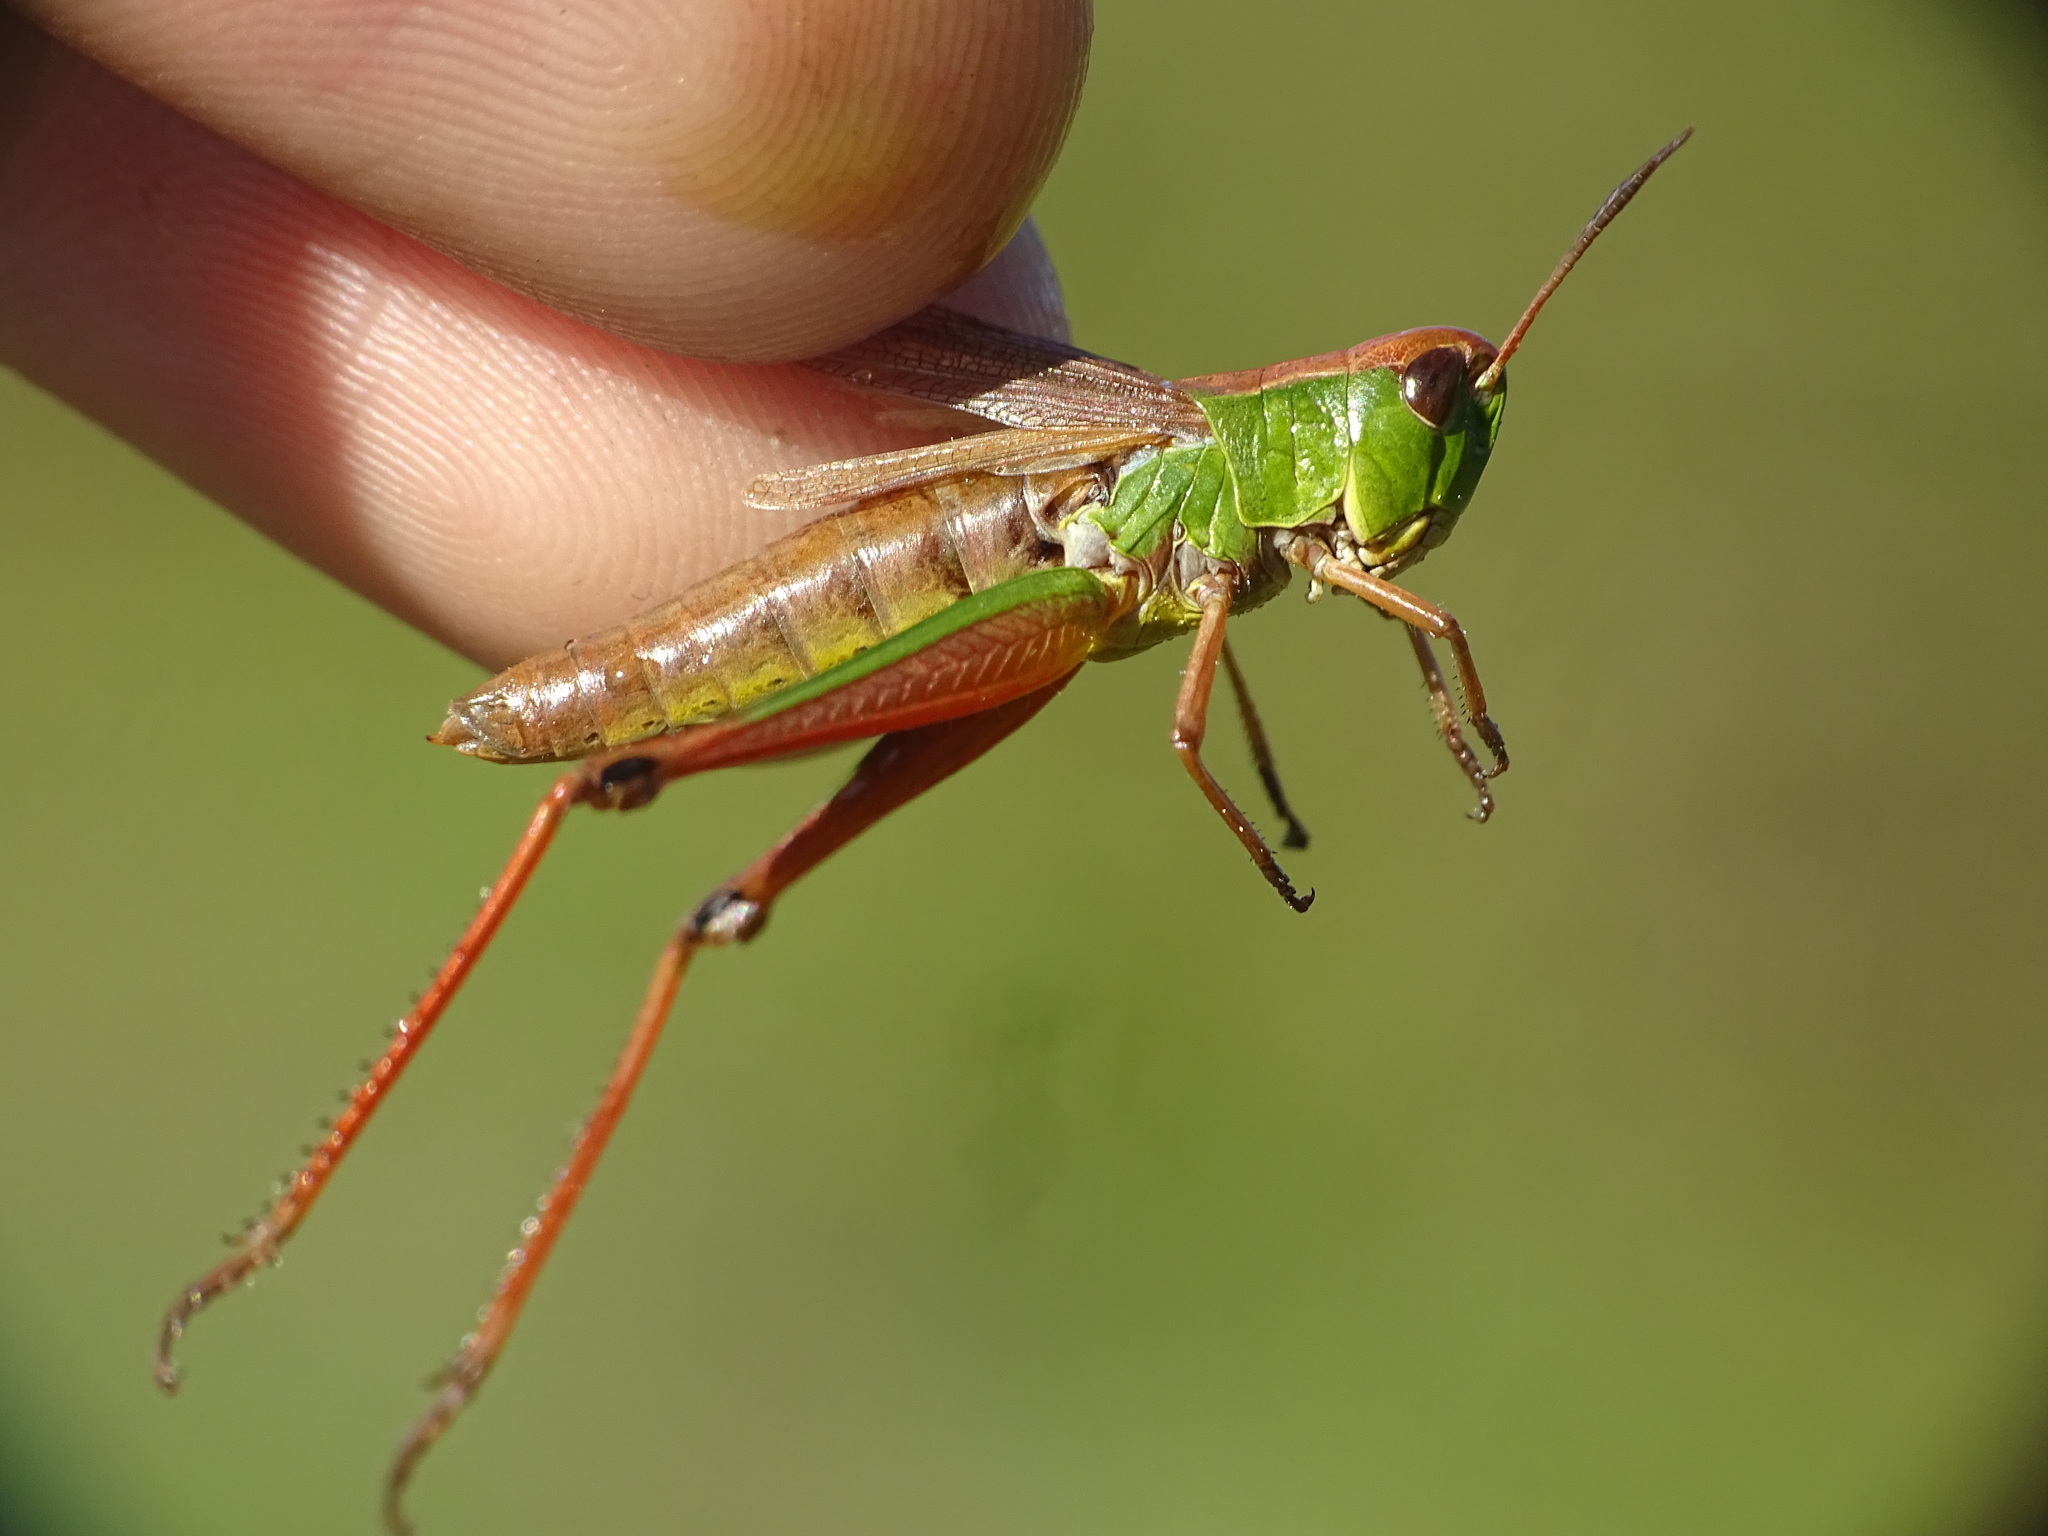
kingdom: Animalia
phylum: Arthropoda
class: Insecta
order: Orthoptera
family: Acrididae
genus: Pseudochorthippus
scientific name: Pseudochorthippus curtipennis
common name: Marsh meadow grasshopper
